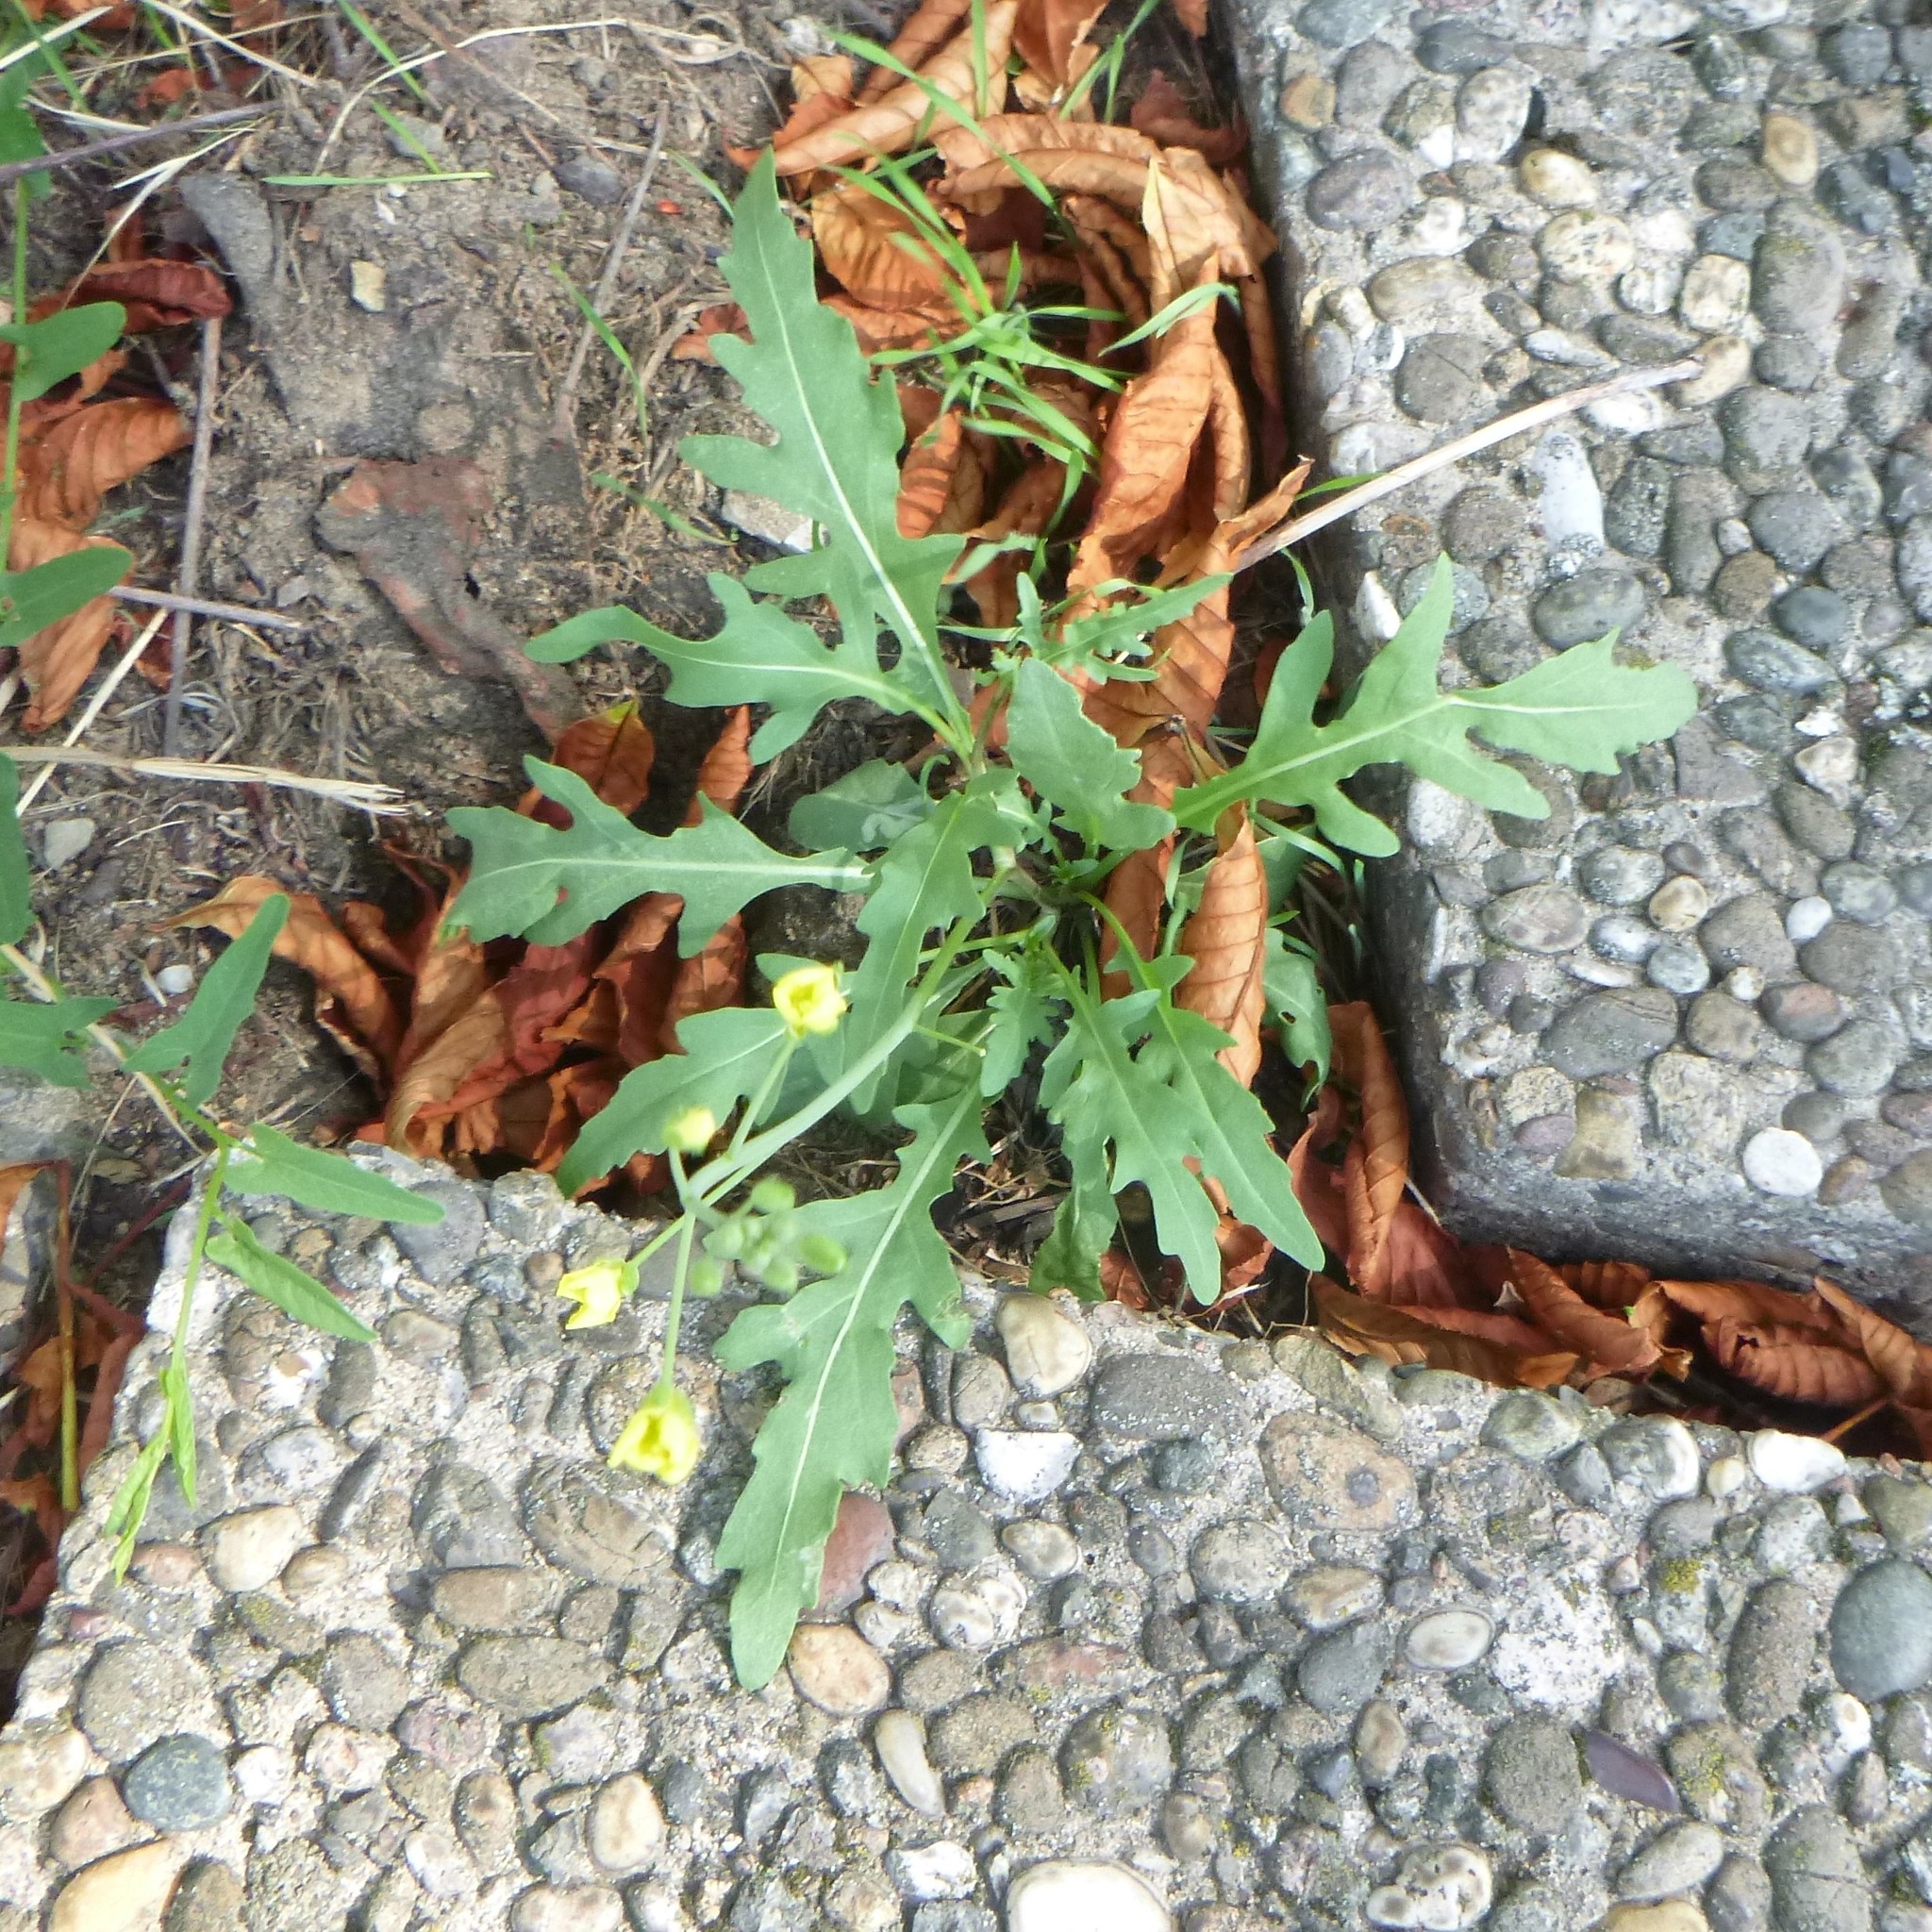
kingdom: Plantae
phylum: Tracheophyta
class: Magnoliopsida
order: Brassicales
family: Brassicaceae
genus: Diplotaxis
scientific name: Diplotaxis tenuifolia
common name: Perennial wall-rocket
